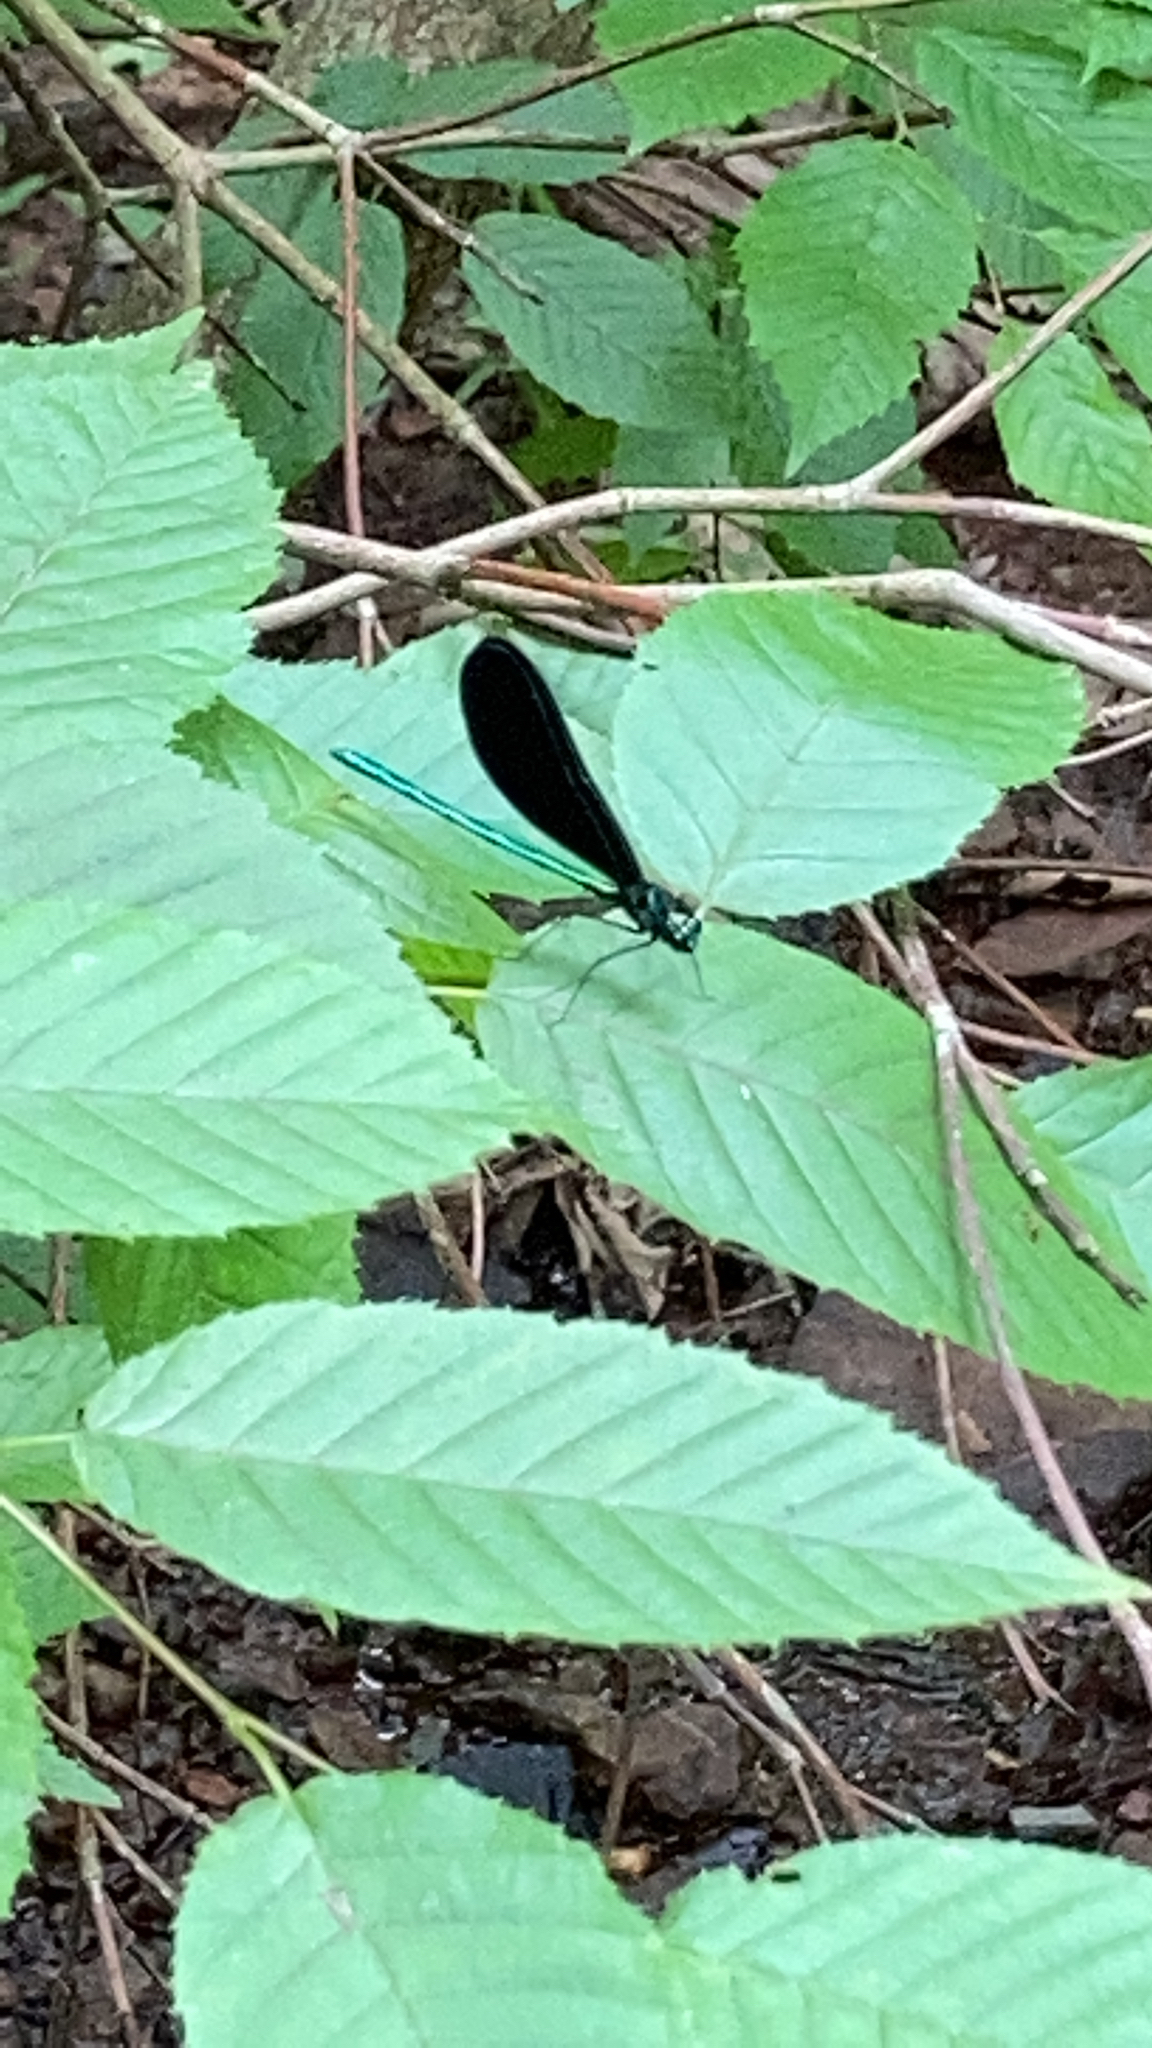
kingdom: Animalia
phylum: Arthropoda
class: Insecta
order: Odonata
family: Calopterygidae
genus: Calopteryx
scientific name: Calopteryx maculata
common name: Ebony jewelwing
